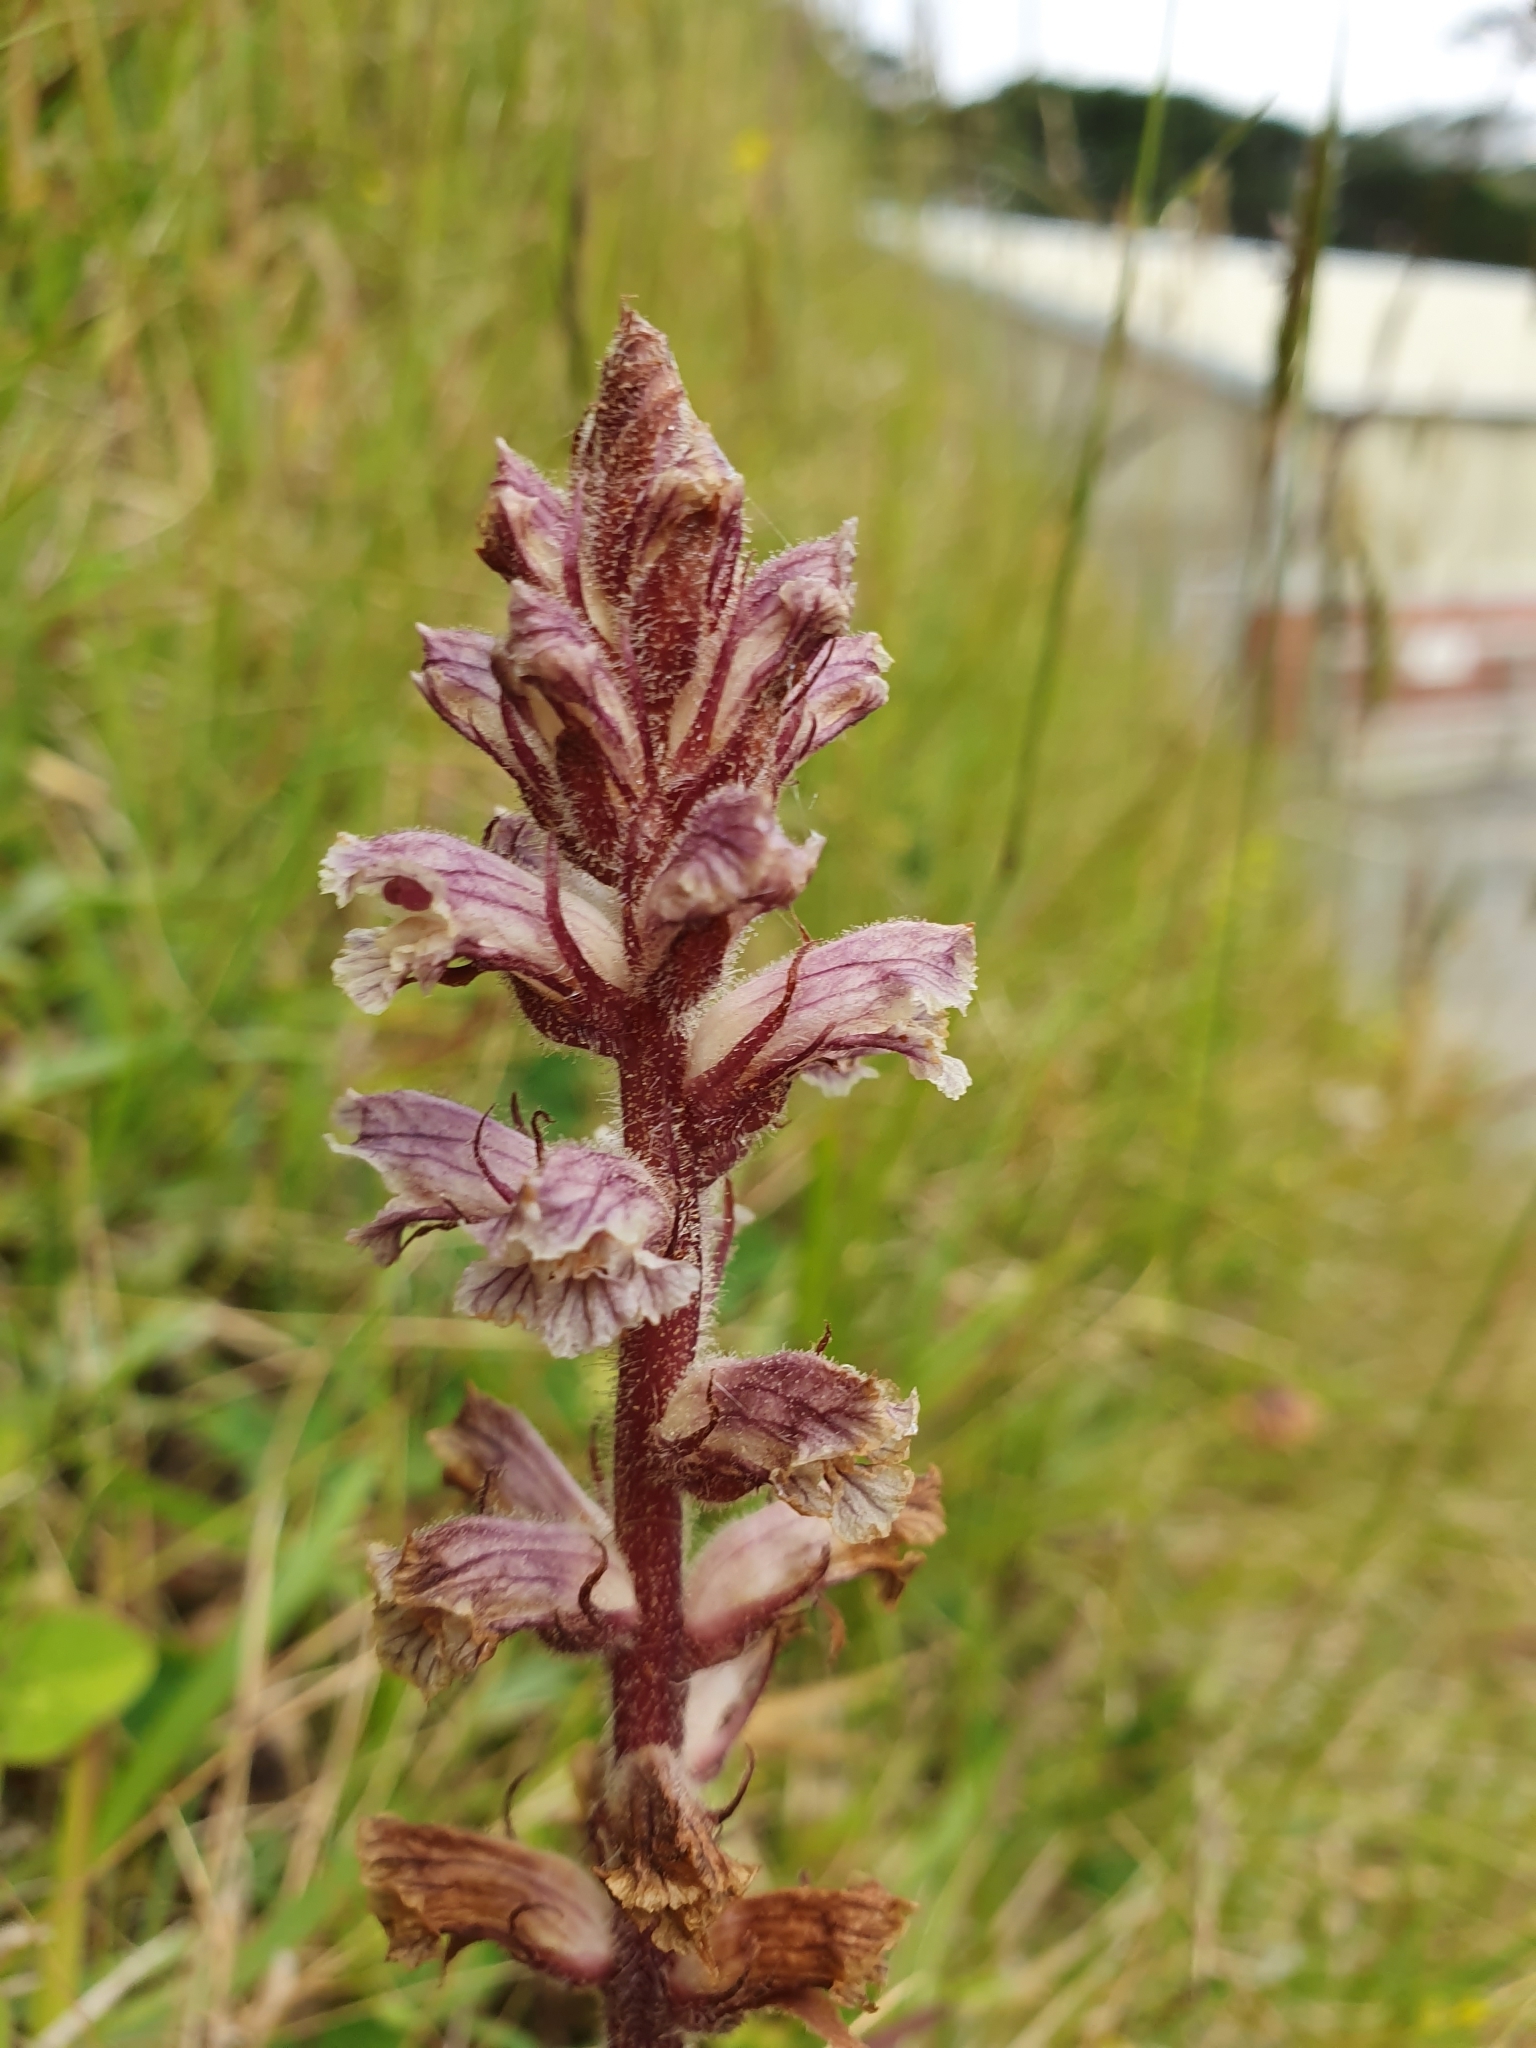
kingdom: Plantae
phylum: Tracheophyta
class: Magnoliopsida
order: Lamiales
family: Orobanchaceae
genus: Orobanche
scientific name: Orobanche minor
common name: Common broomrape
